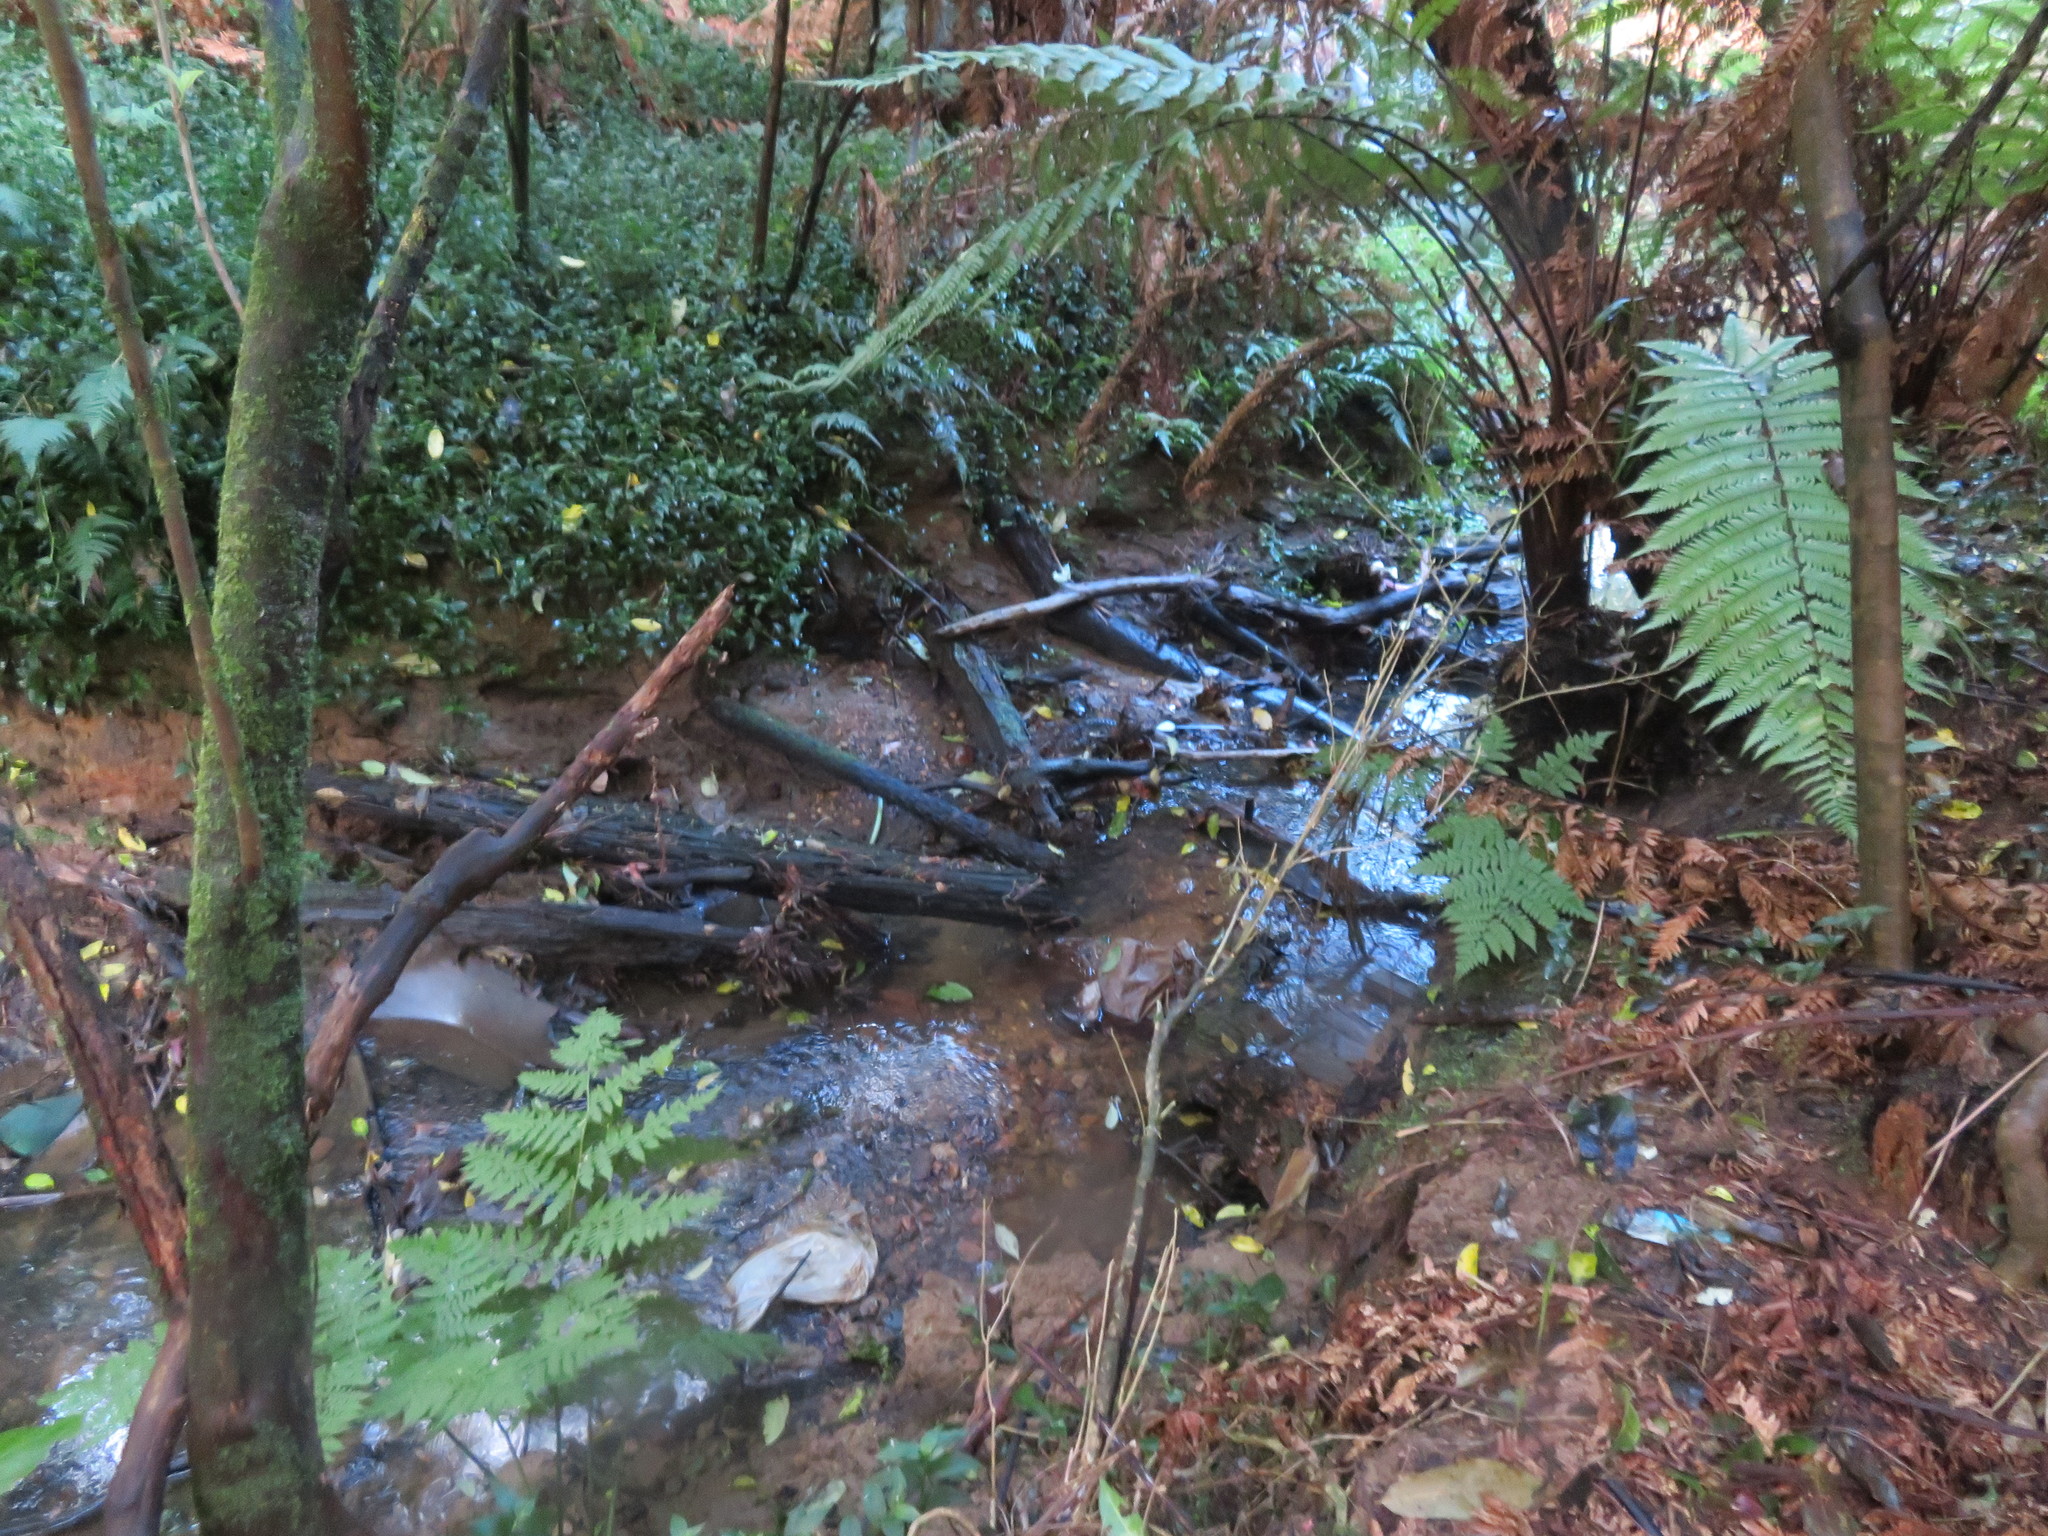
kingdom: Plantae
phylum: Tracheophyta
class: Liliopsida
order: Commelinales
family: Commelinaceae
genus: Tradescantia
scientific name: Tradescantia fluminensis
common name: Wandering-jew
